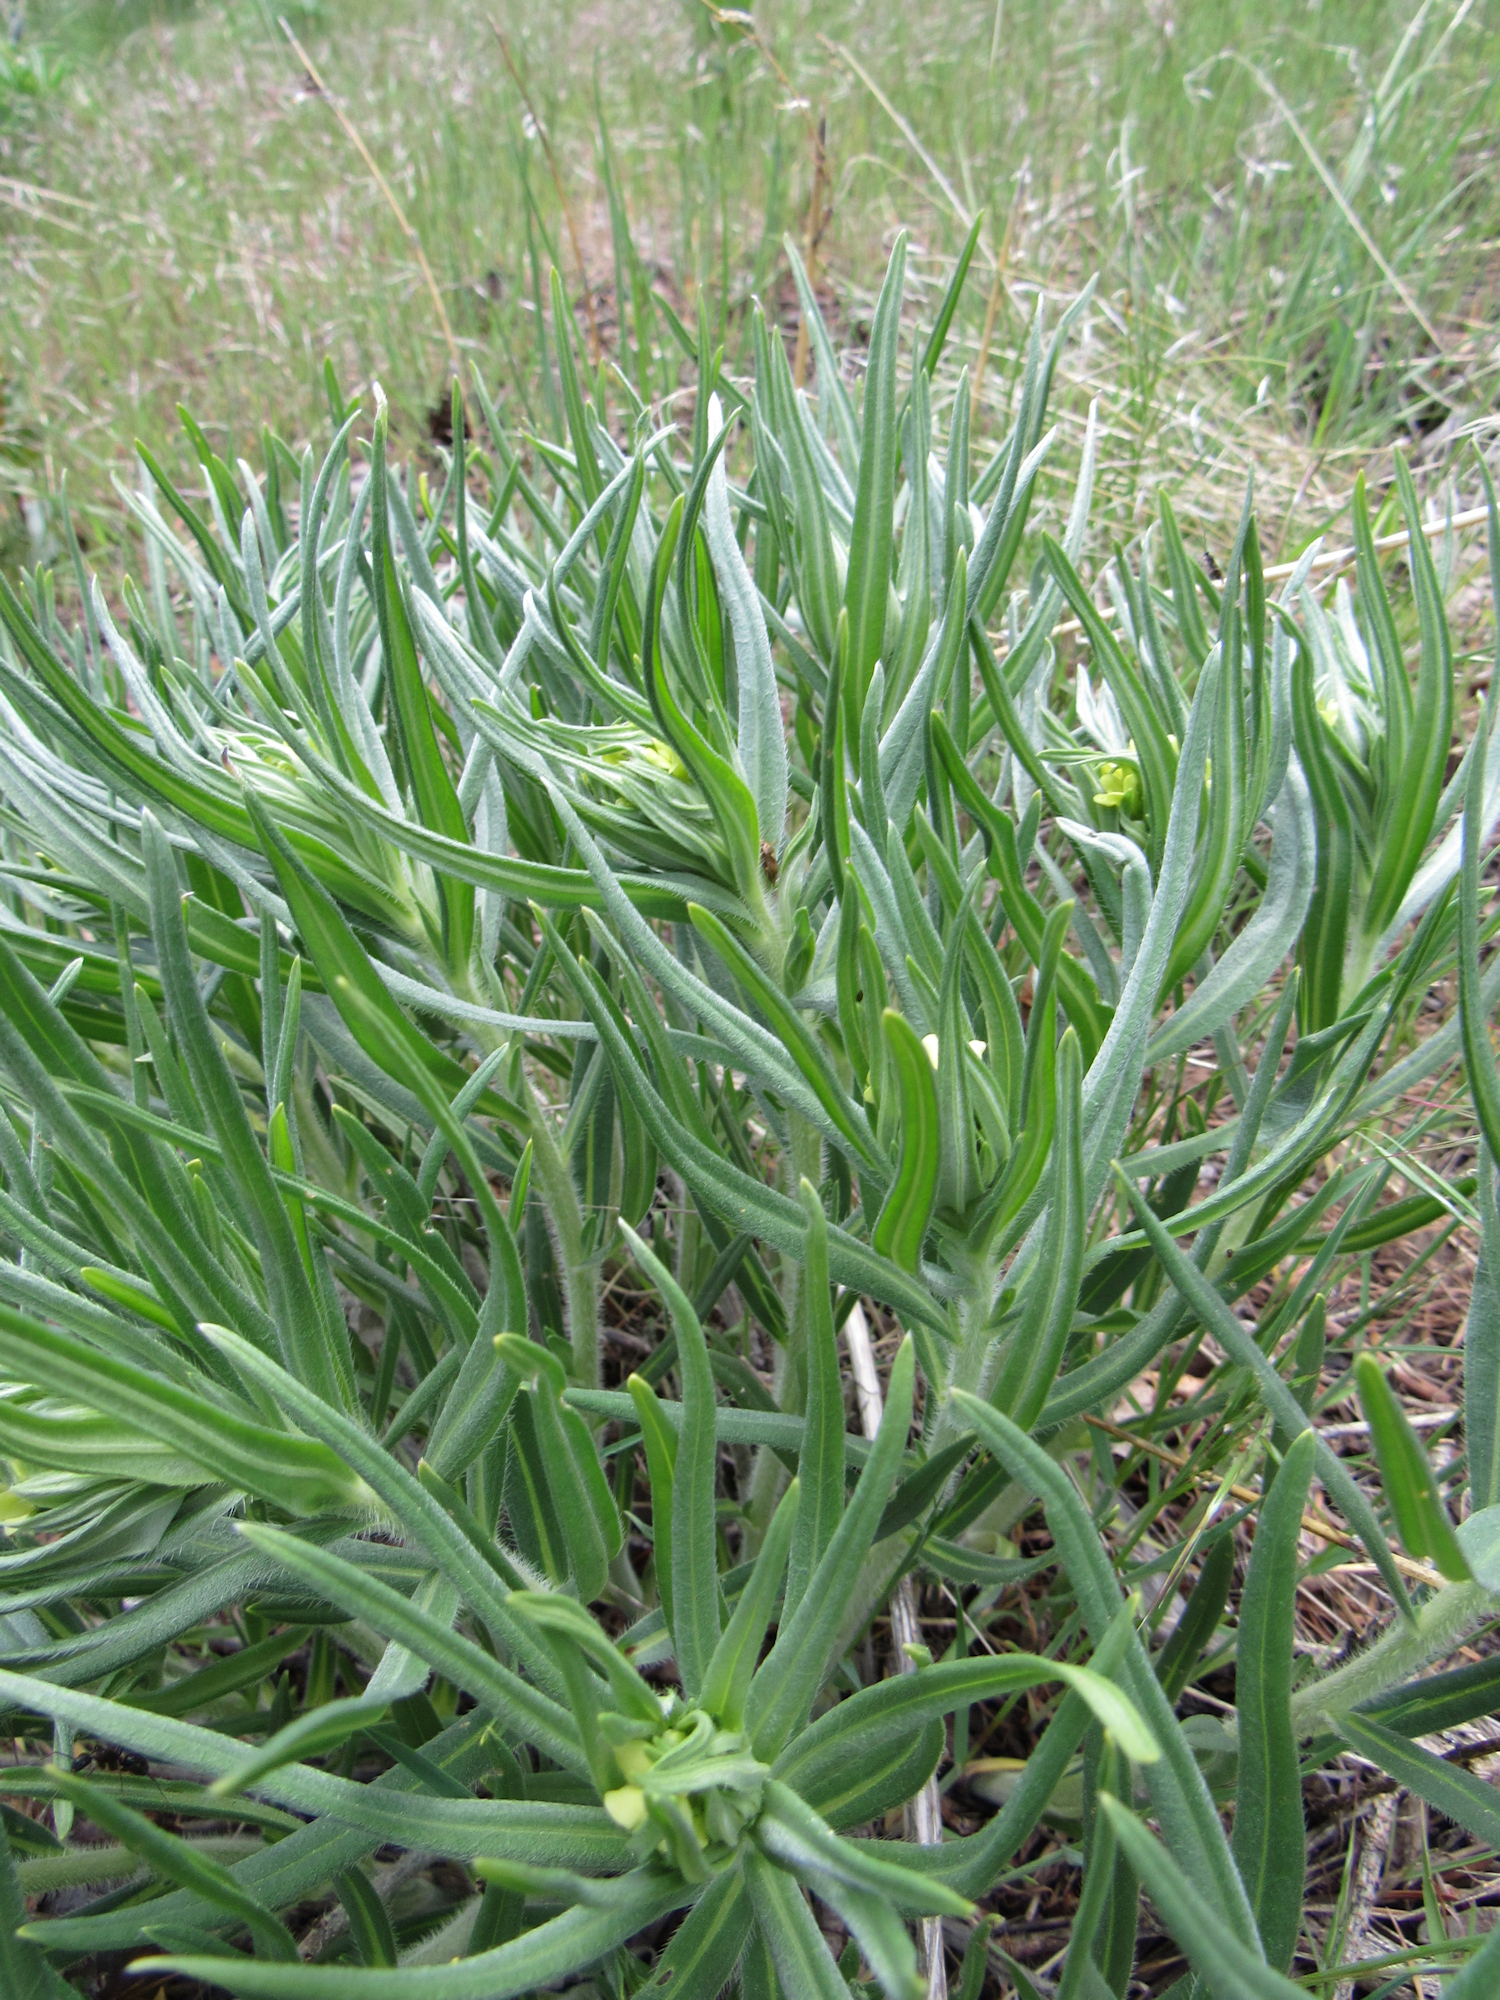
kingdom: Plantae
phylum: Tracheophyta
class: Magnoliopsida
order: Boraginales
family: Boraginaceae
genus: Lithospermum
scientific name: Lithospermum ruderale
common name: Western gromwell
